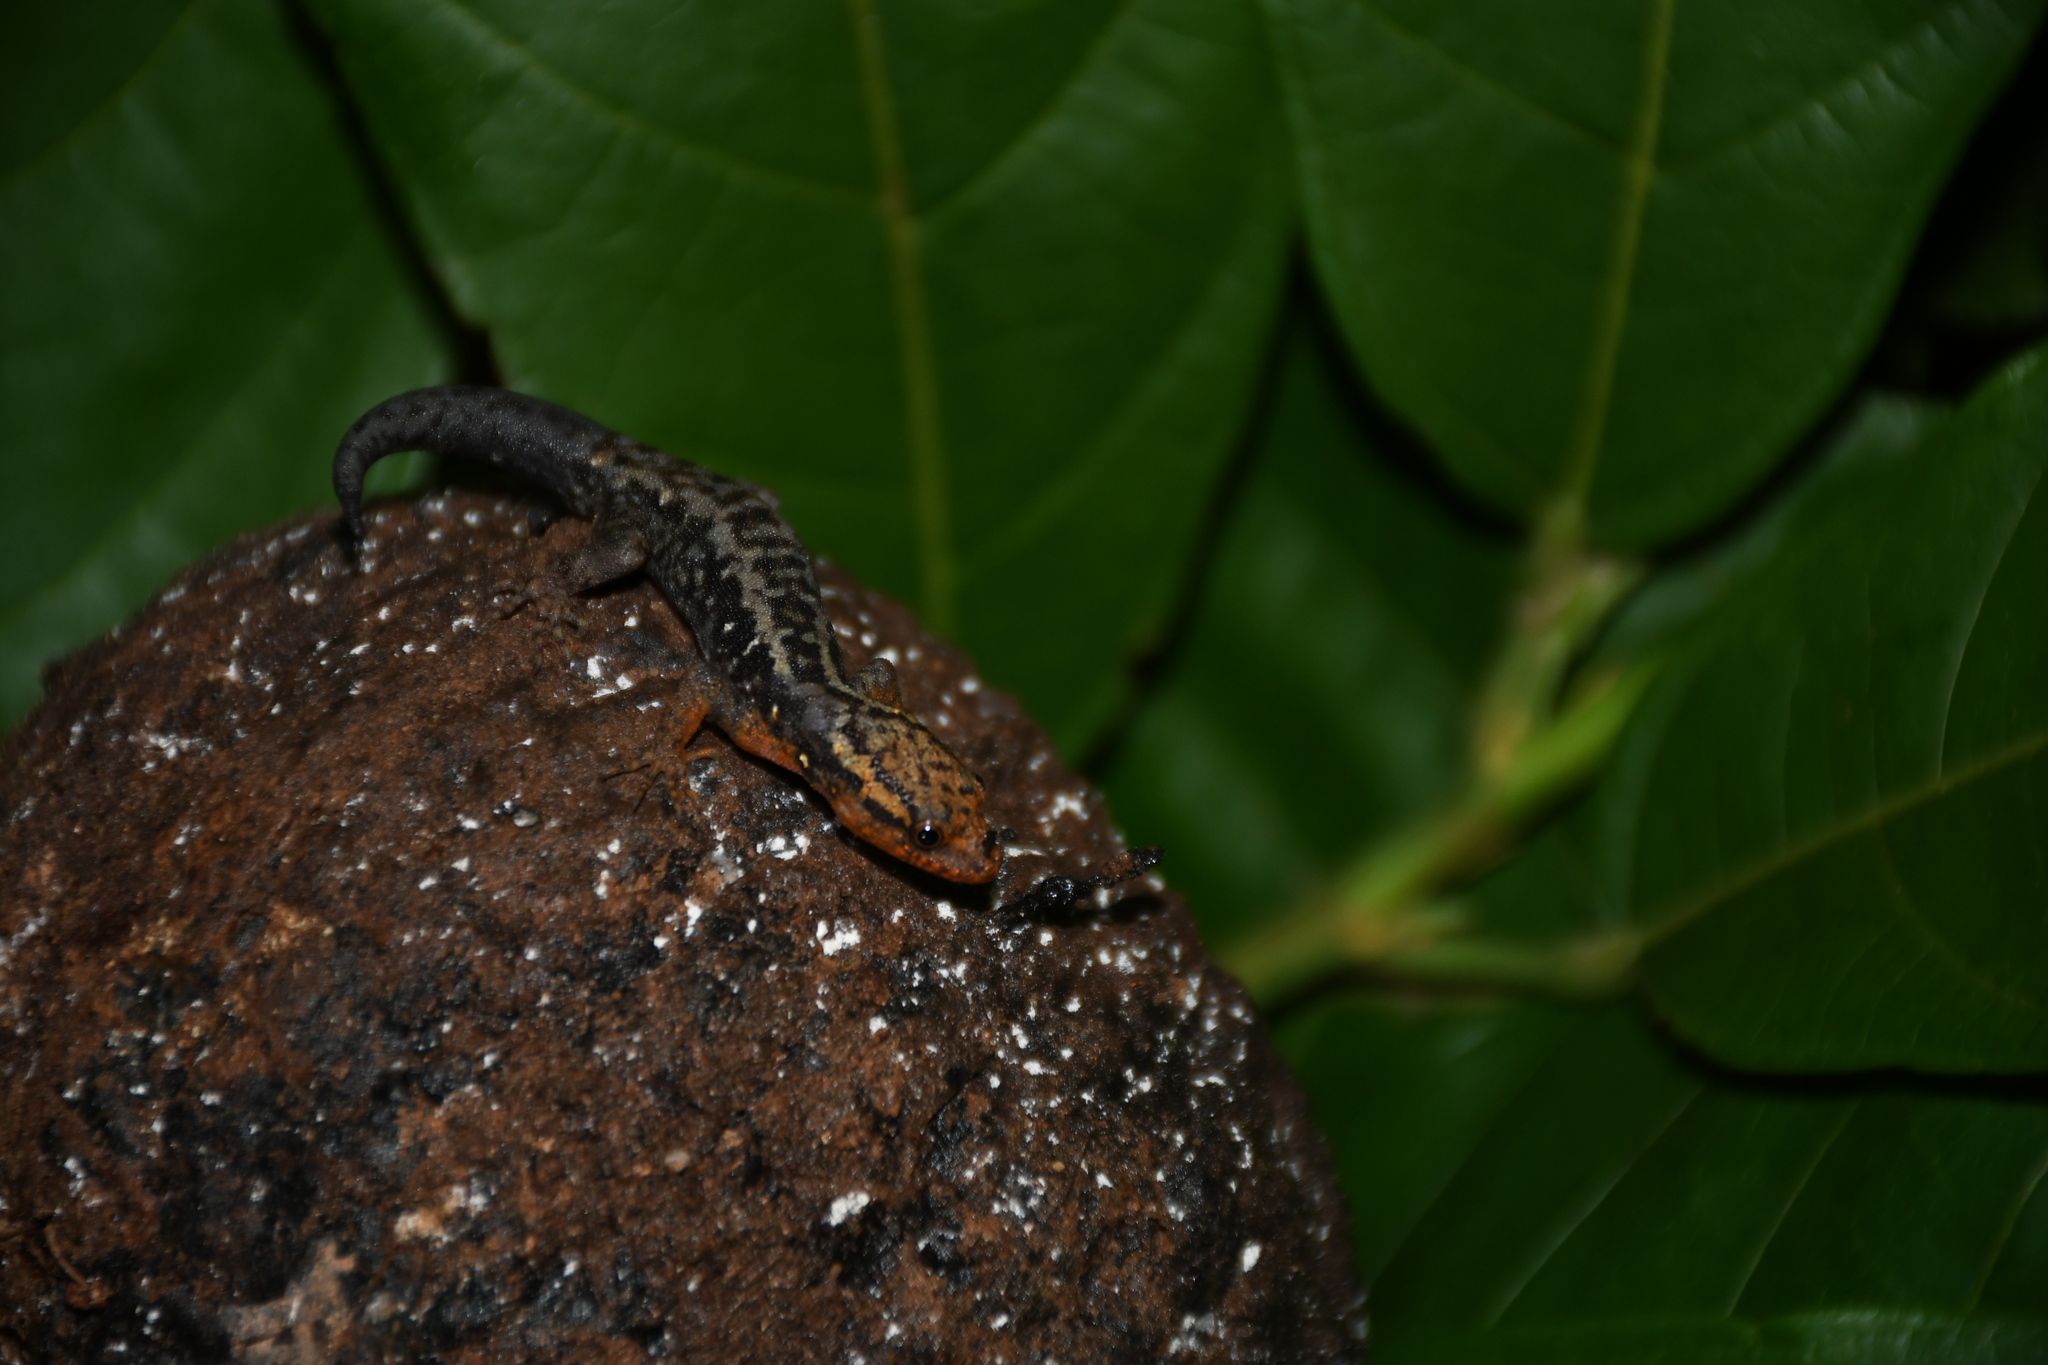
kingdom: Animalia
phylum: Chordata
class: Squamata
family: Sphaerodactylidae
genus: Gonatodes
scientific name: Gonatodes hasemani
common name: Haseman's gecko
